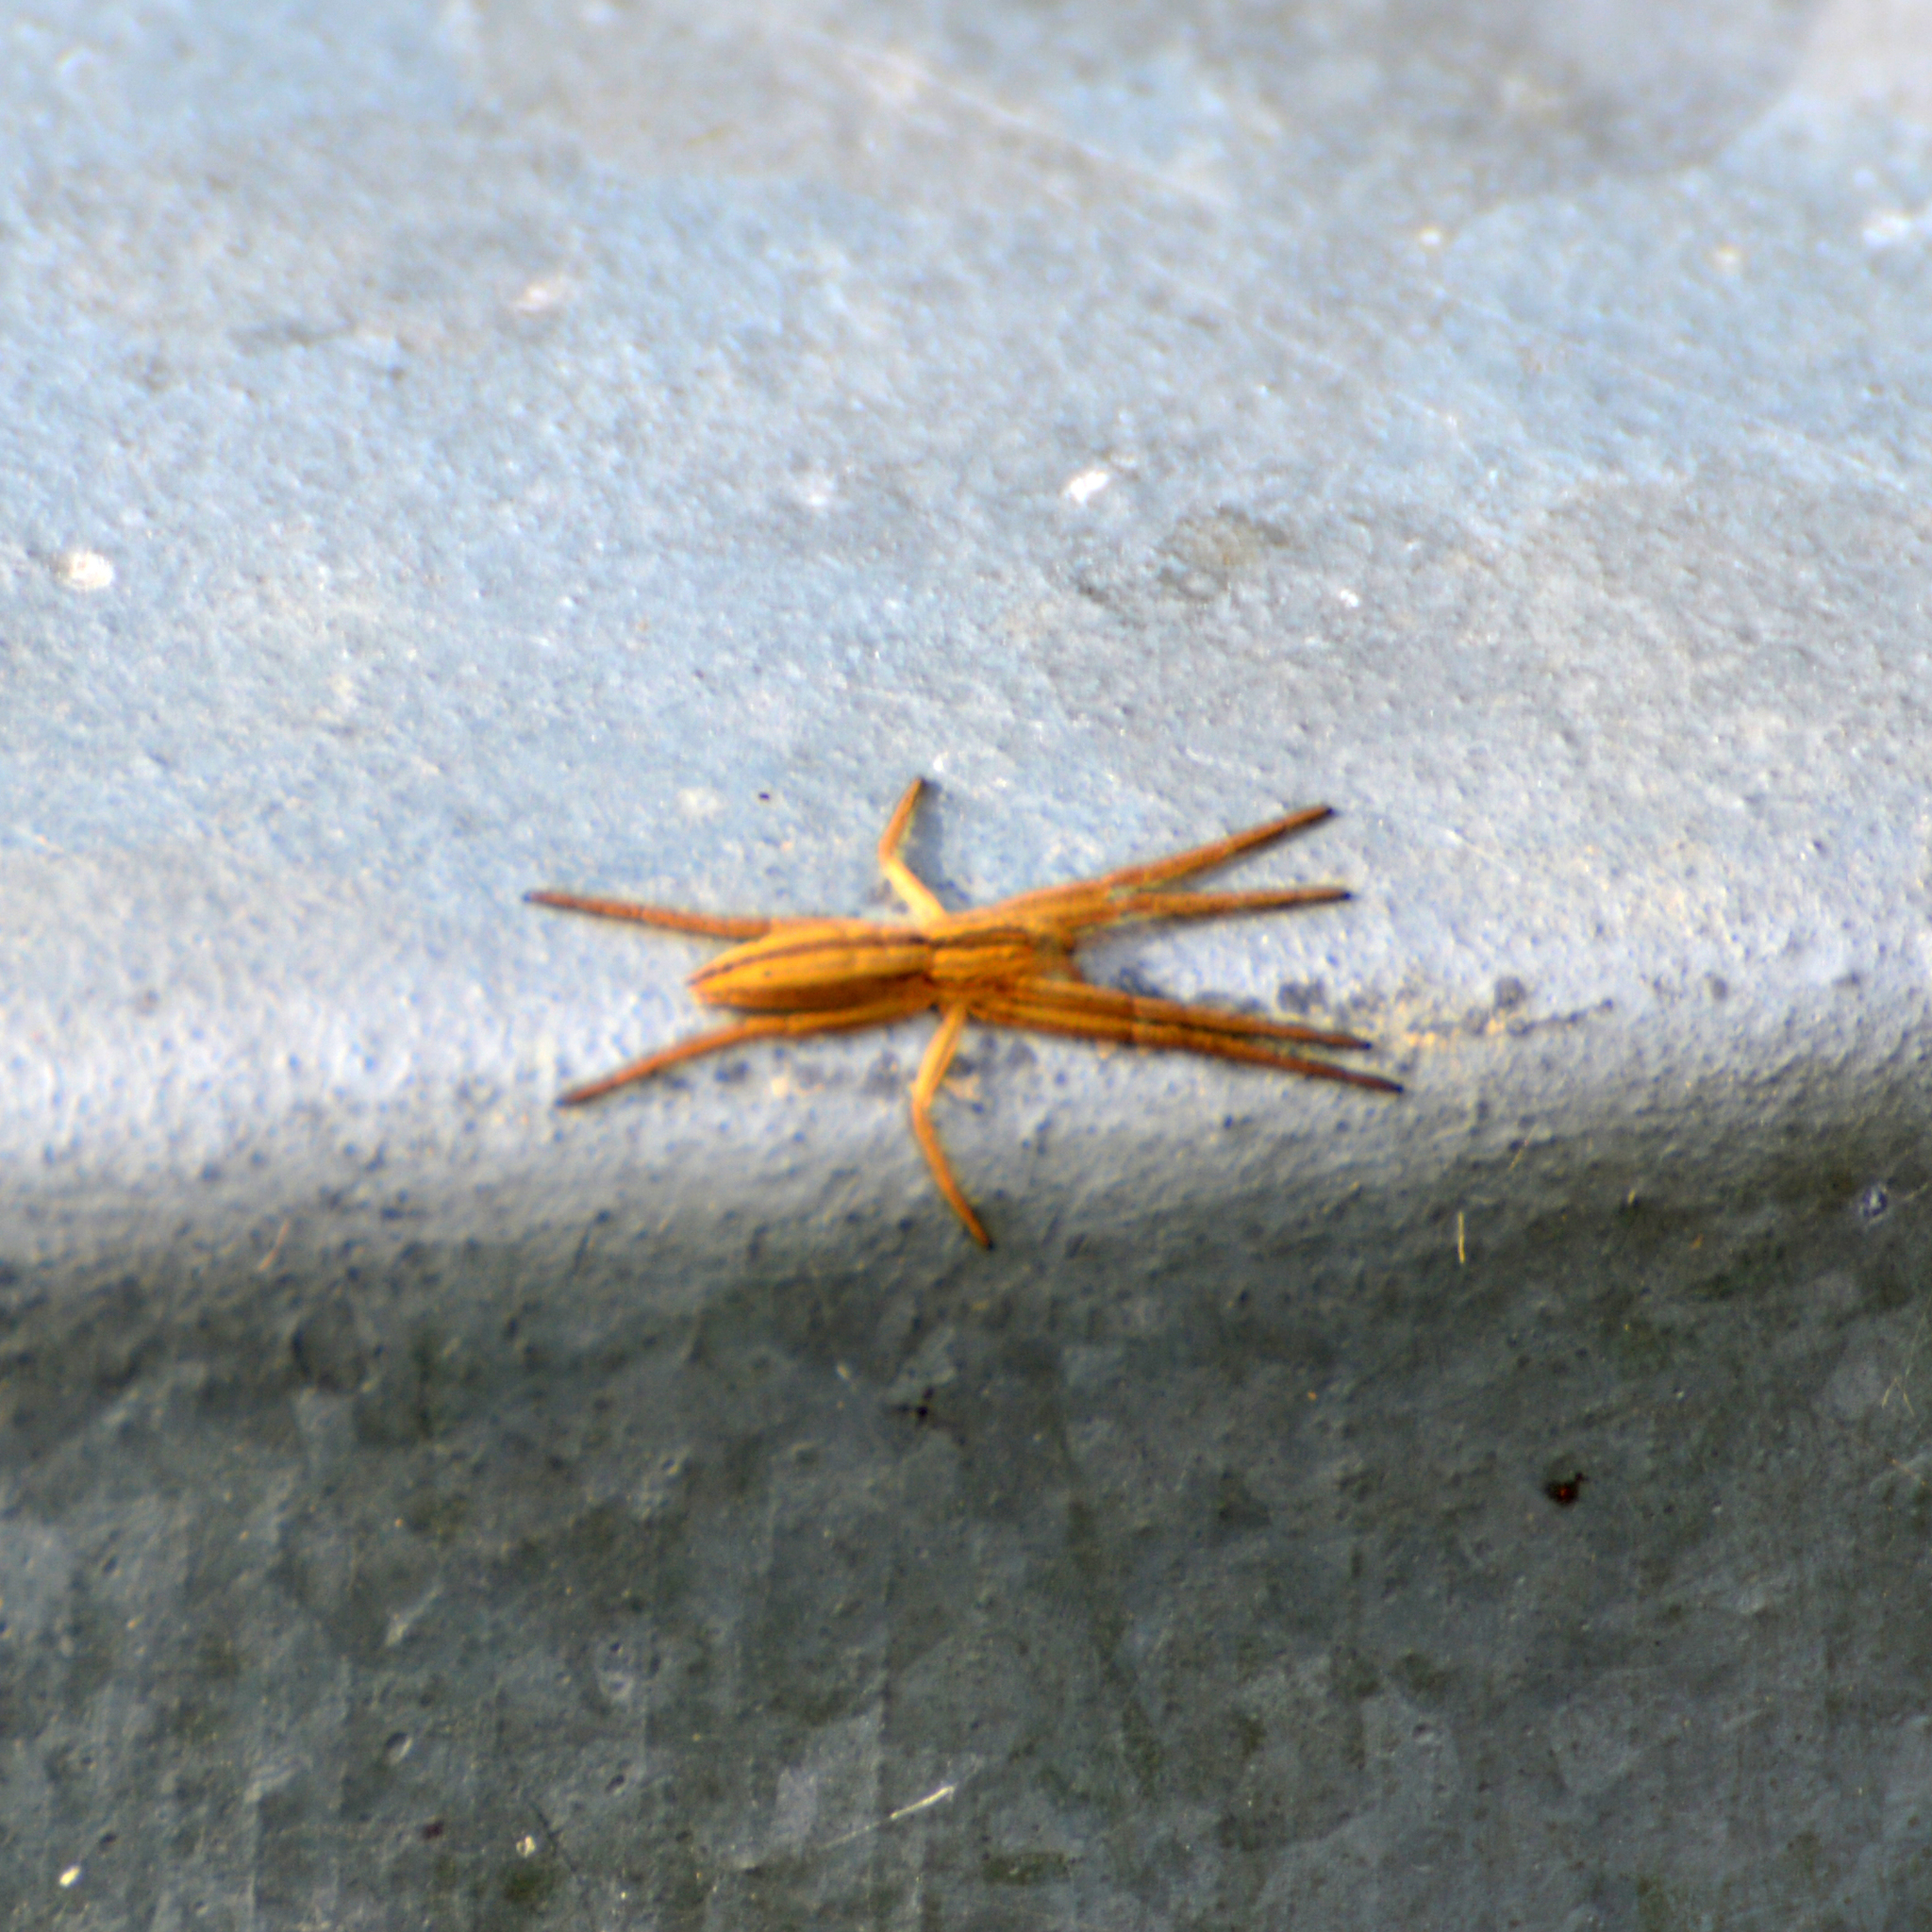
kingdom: Animalia
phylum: Arthropoda
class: Arachnida
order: Araneae
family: Philodromidae
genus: Tibellus
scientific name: Tibellus
